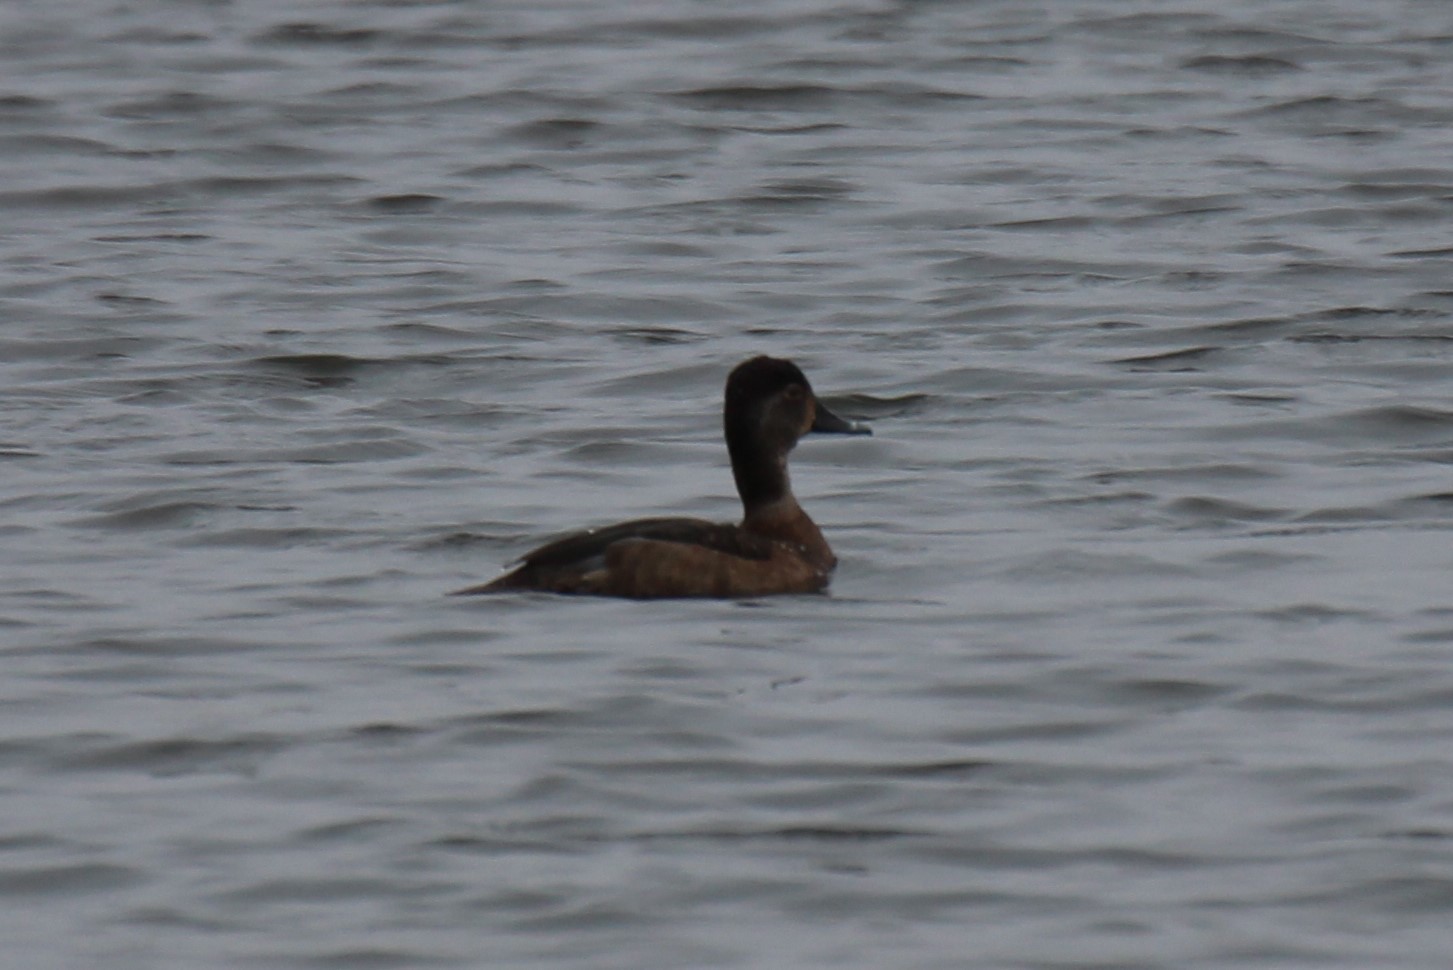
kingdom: Animalia
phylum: Chordata
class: Aves
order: Anseriformes
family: Anatidae
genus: Aythya
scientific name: Aythya collaris
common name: Ring-necked duck
